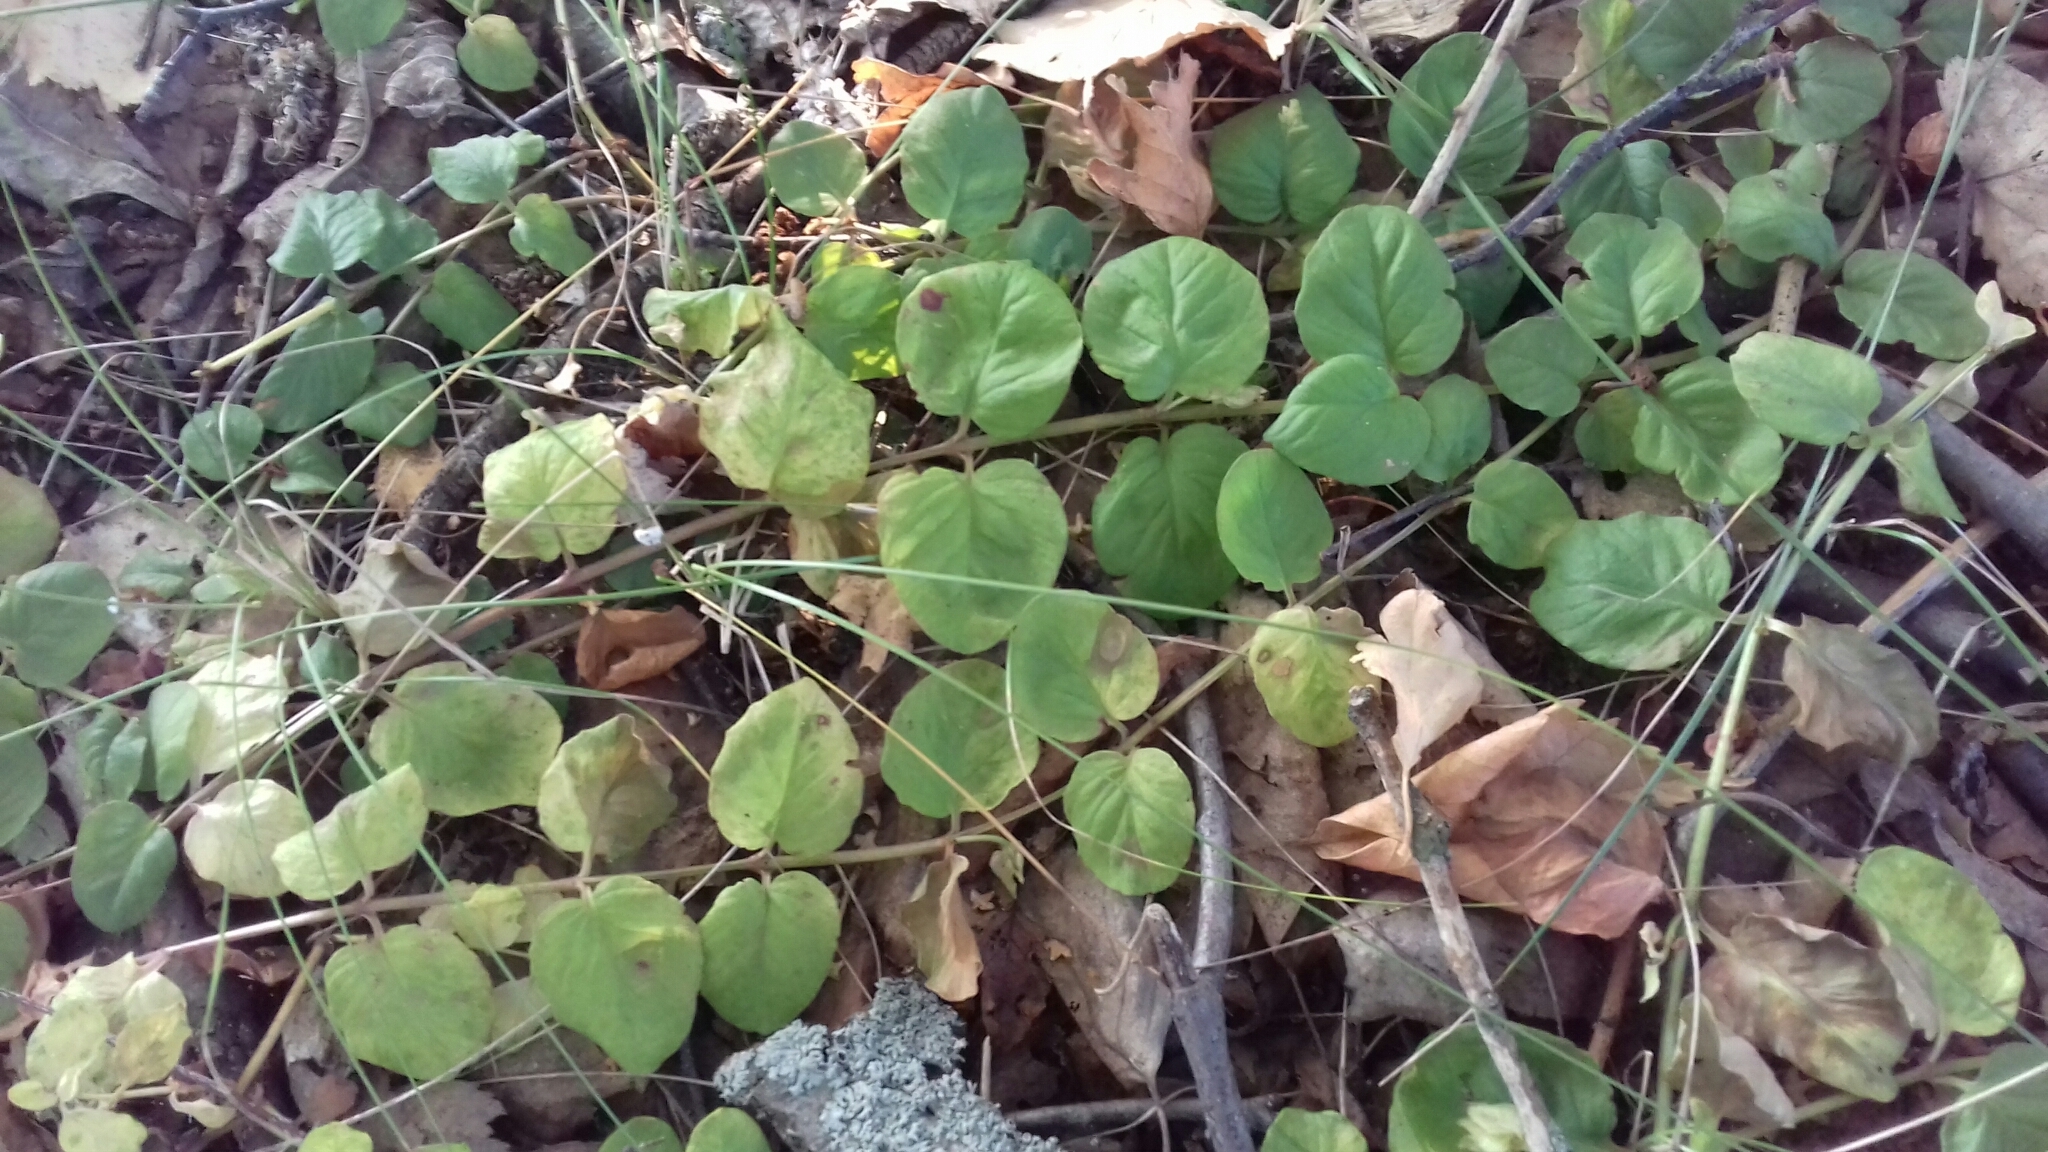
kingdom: Plantae
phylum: Tracheophyta
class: Magnoliopsida
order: Ericales
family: Primulaceae
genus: Lysimachia
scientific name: Lysimachia nummularia
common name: Moneywort
